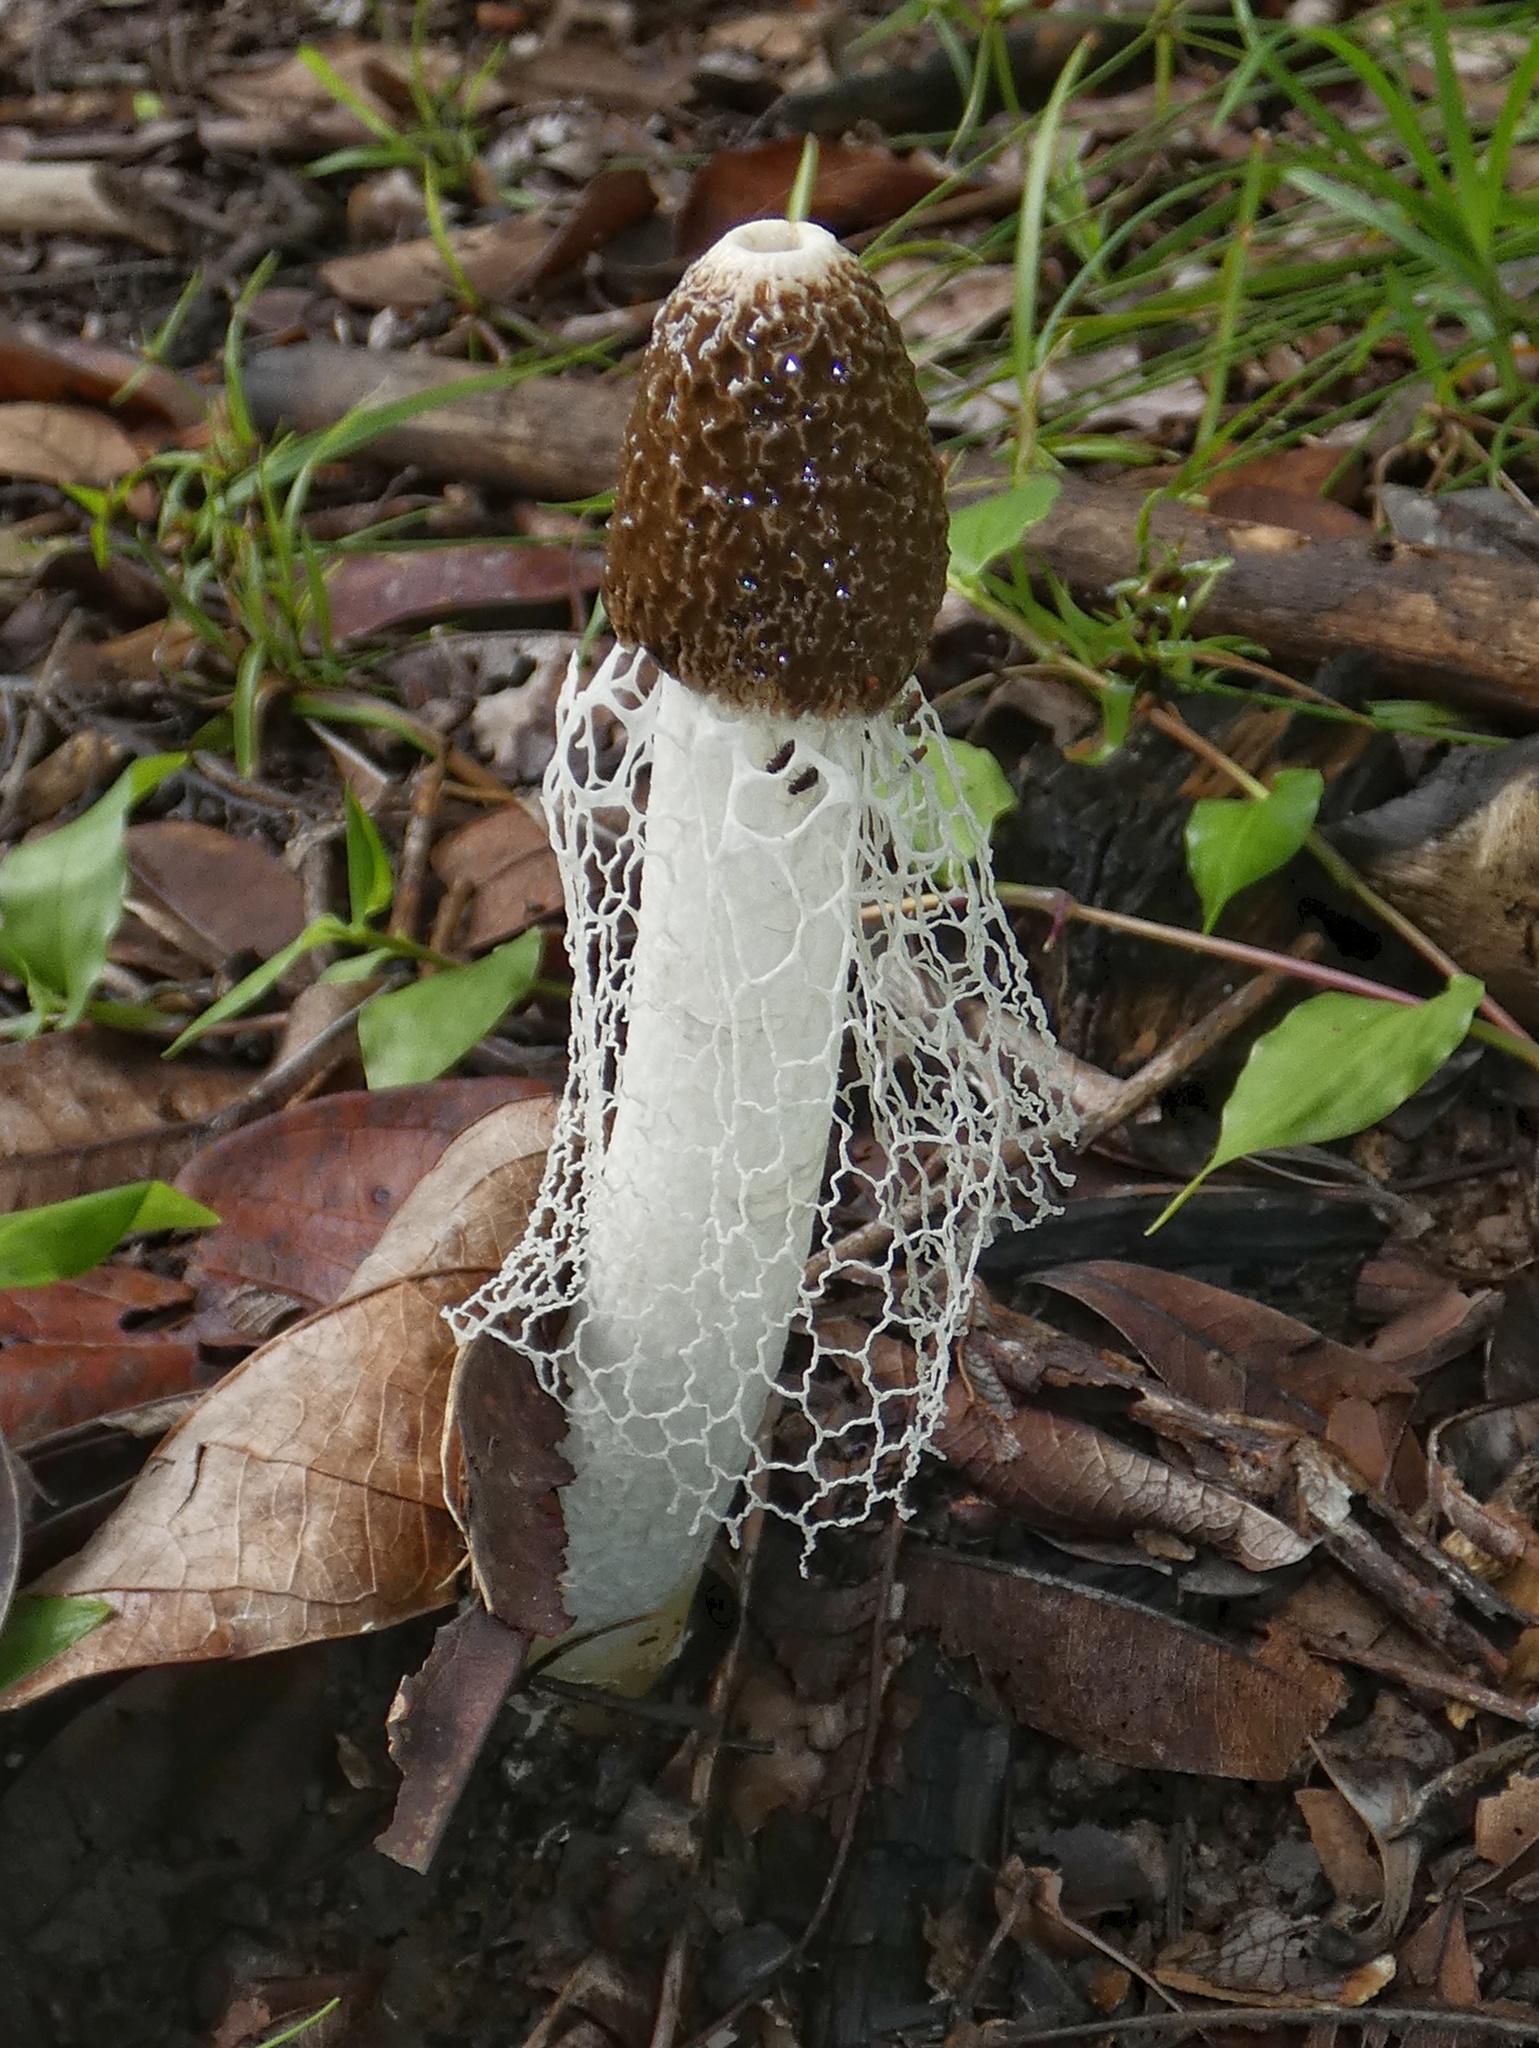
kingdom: Fungi
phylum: Basidiomycota
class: Agaricomycetes
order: Phallales
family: Phallaceae
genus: Phallus
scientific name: Phallus indusiatus
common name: Bridal veil stinkhorn
